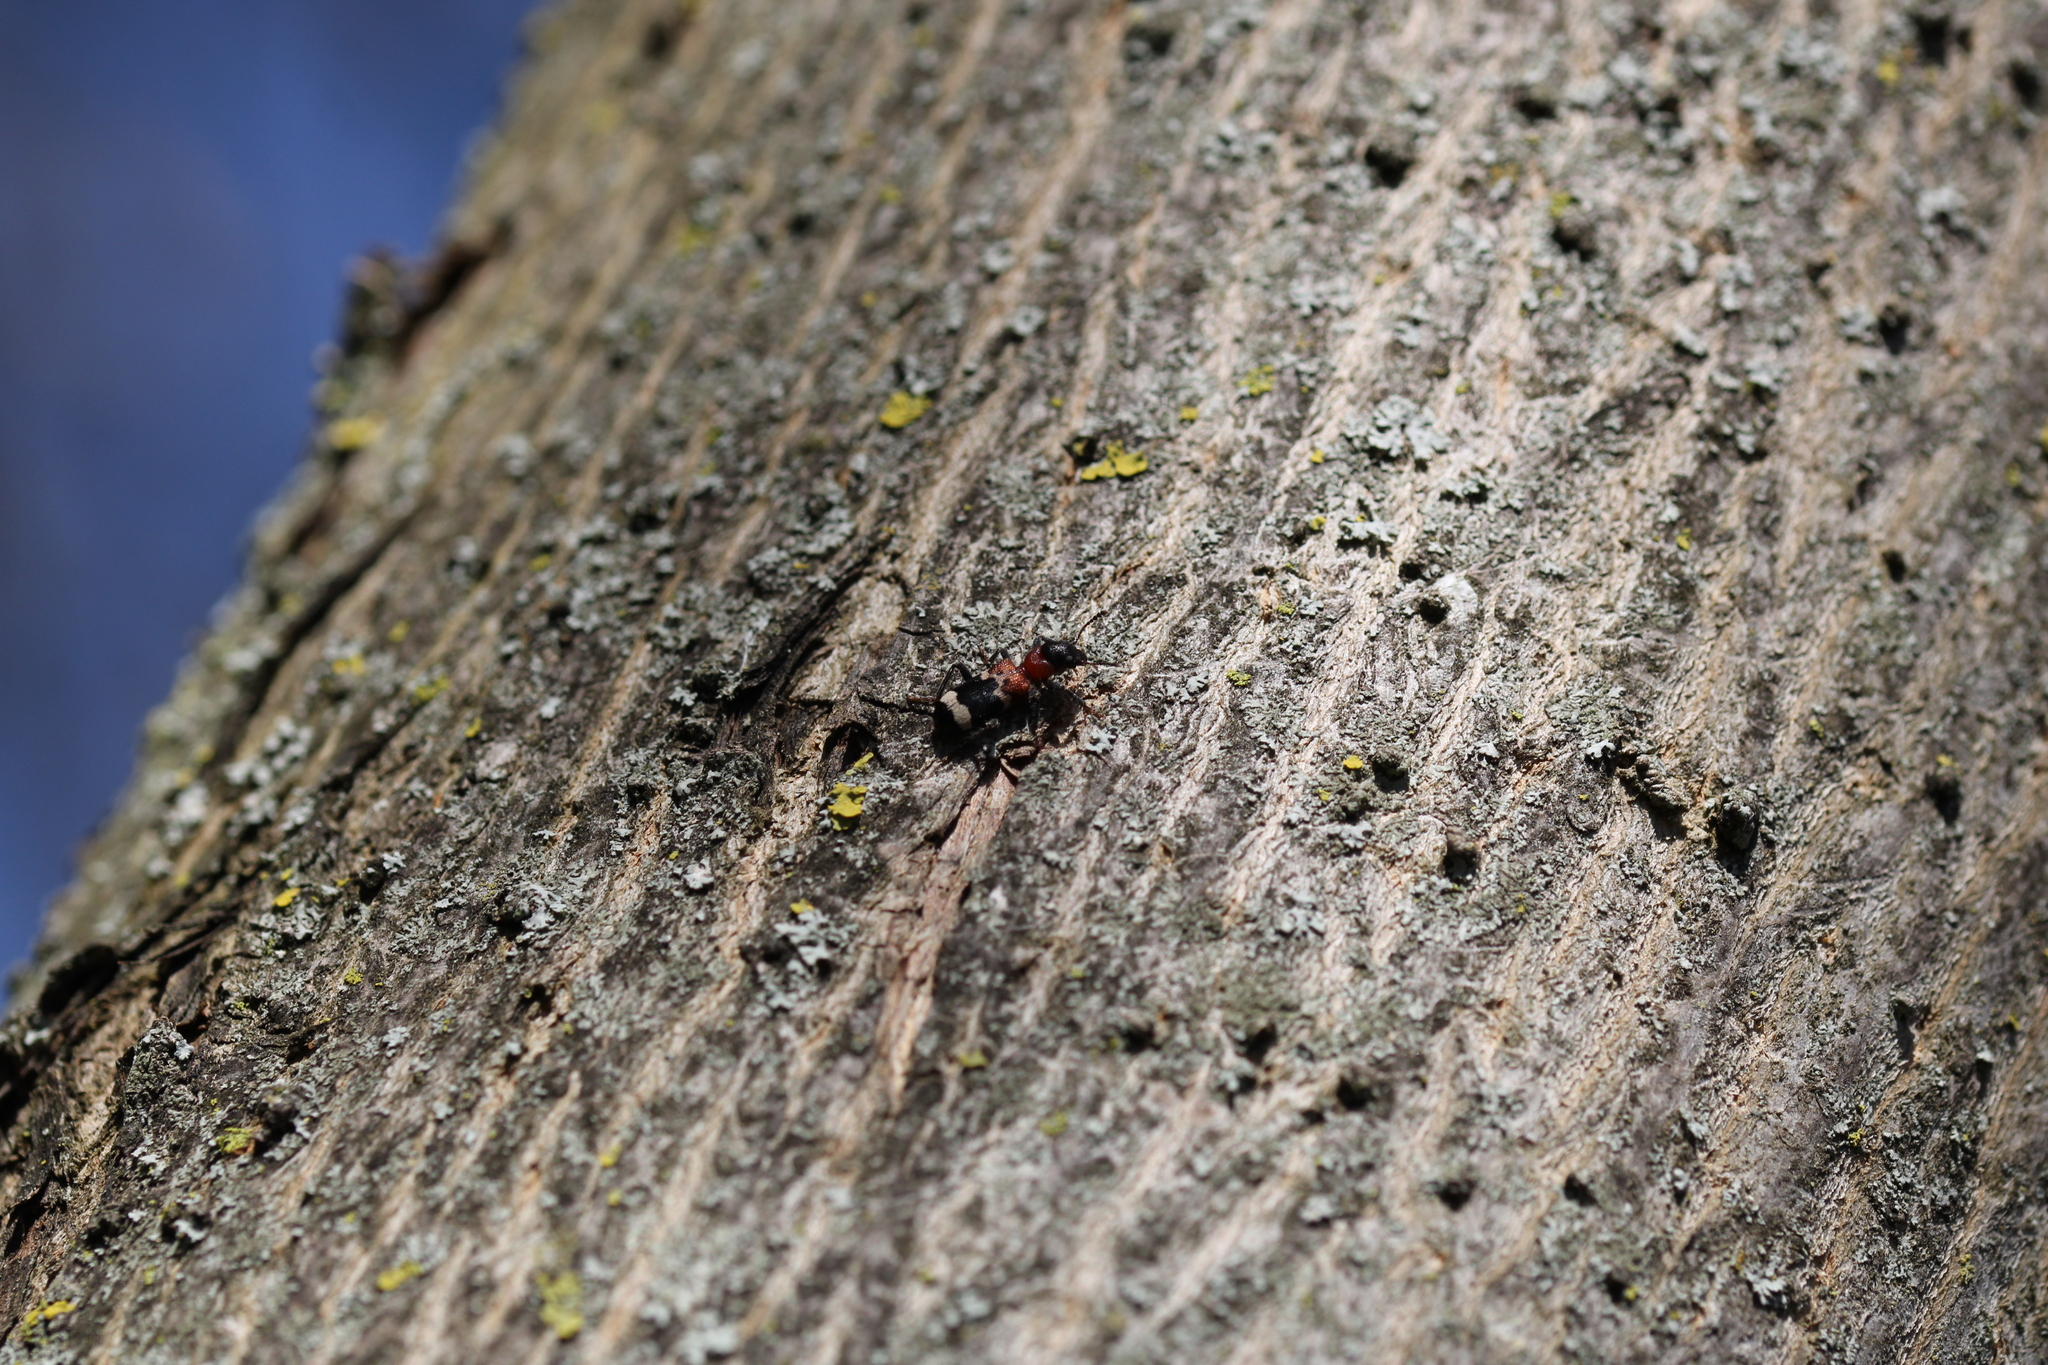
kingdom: Animalia
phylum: Arthropoda
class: Insecta
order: Coleoptera
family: Cleridae
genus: Thanasimus
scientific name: Thanasimus formicarius
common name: Ant beetle
